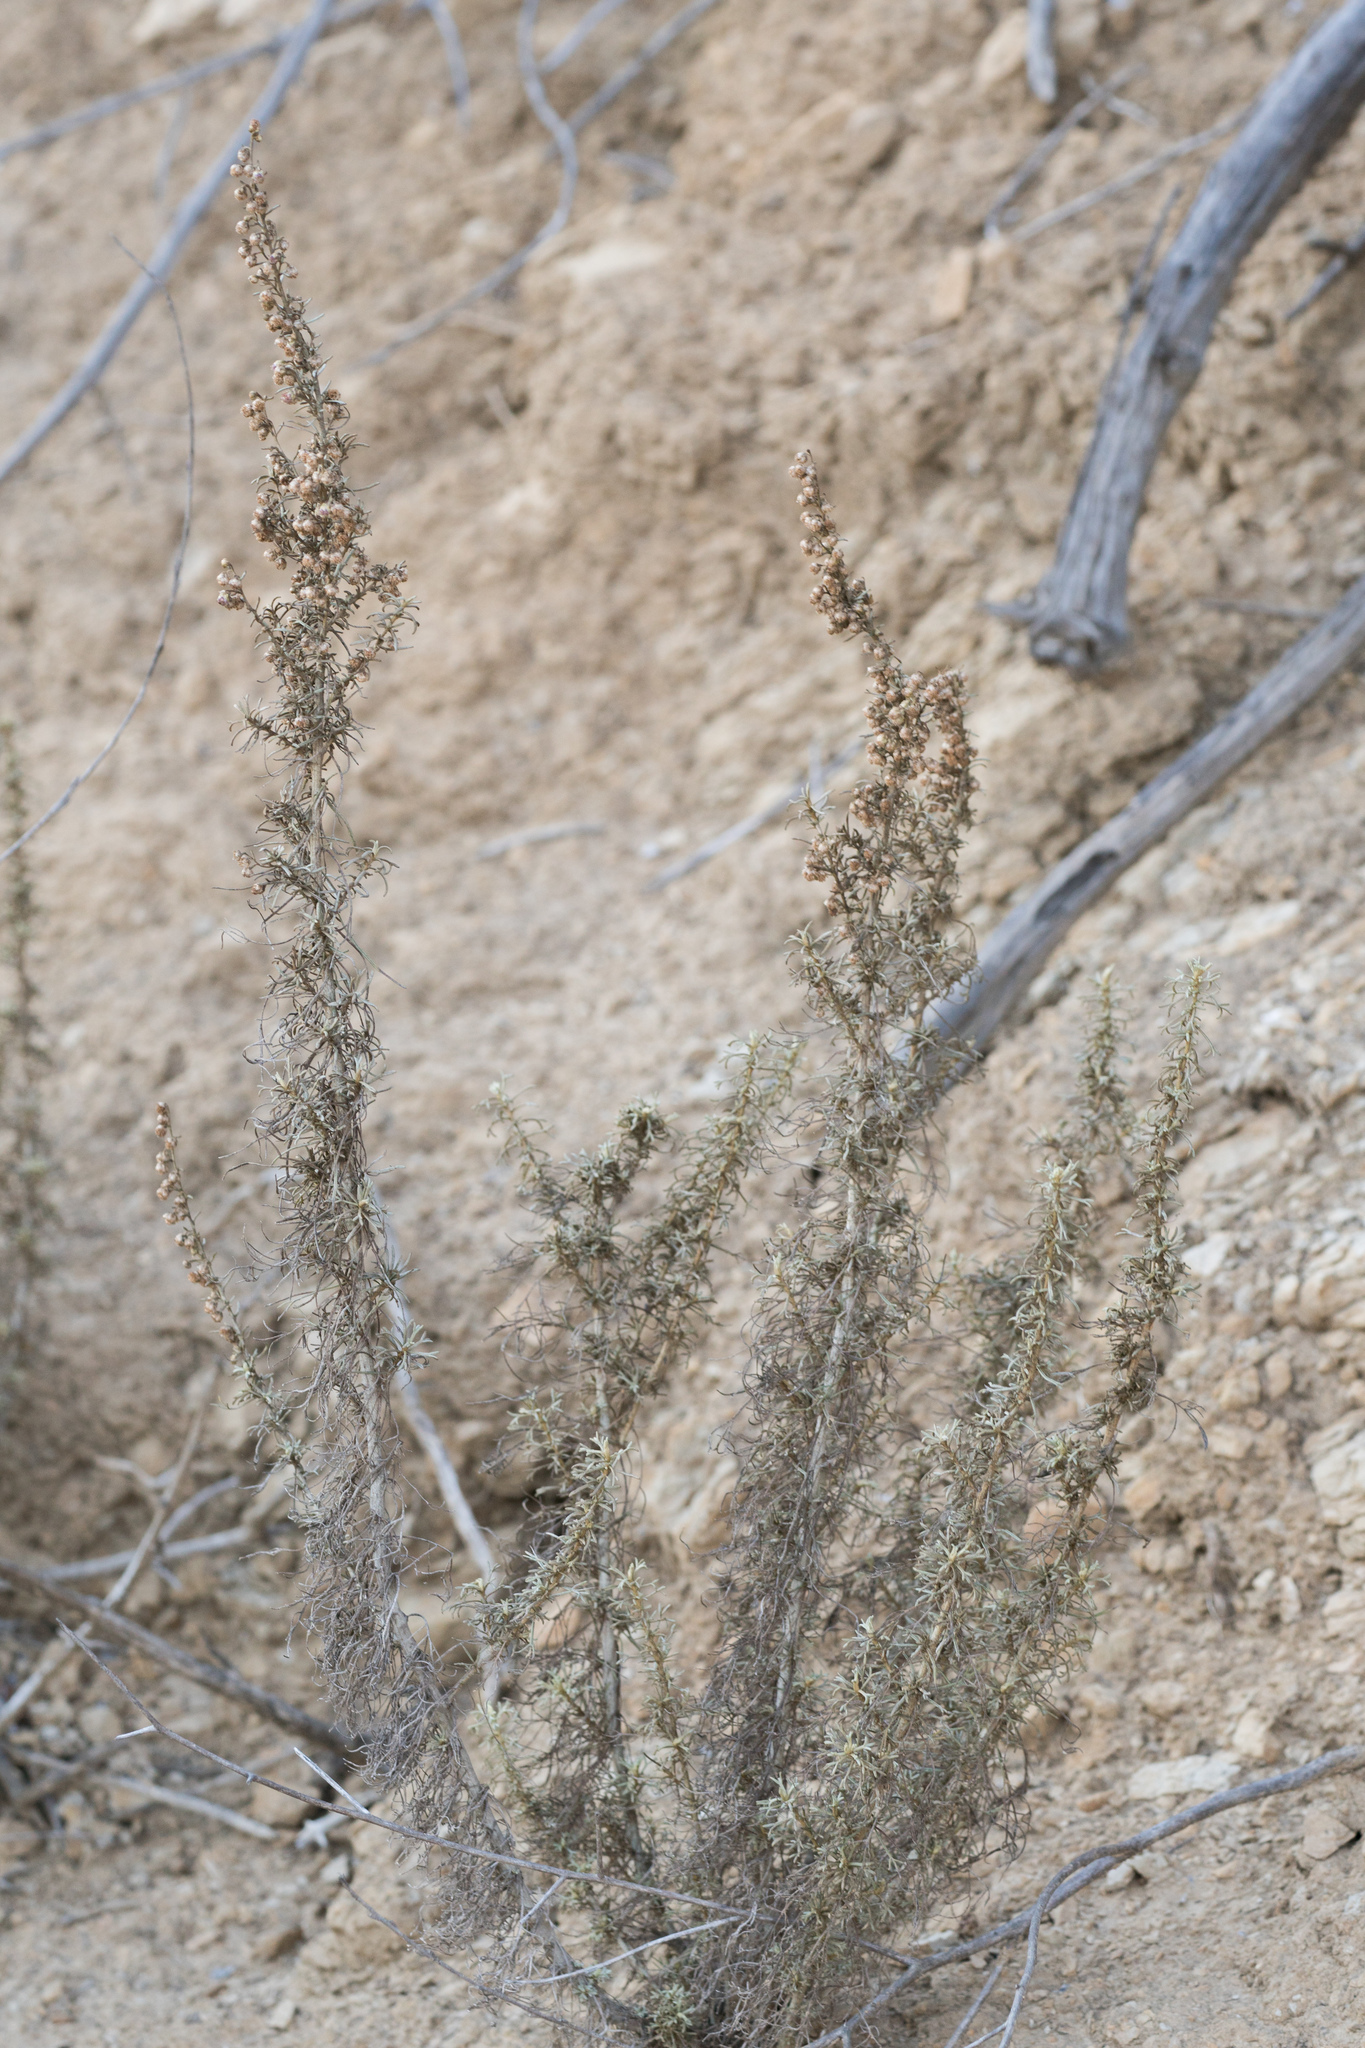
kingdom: Plantae
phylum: Tracheophyta
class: Magnoliopsida
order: Asterales
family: Asteraceae
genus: Artemisia
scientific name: Artemisia californica
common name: California sagebrush
